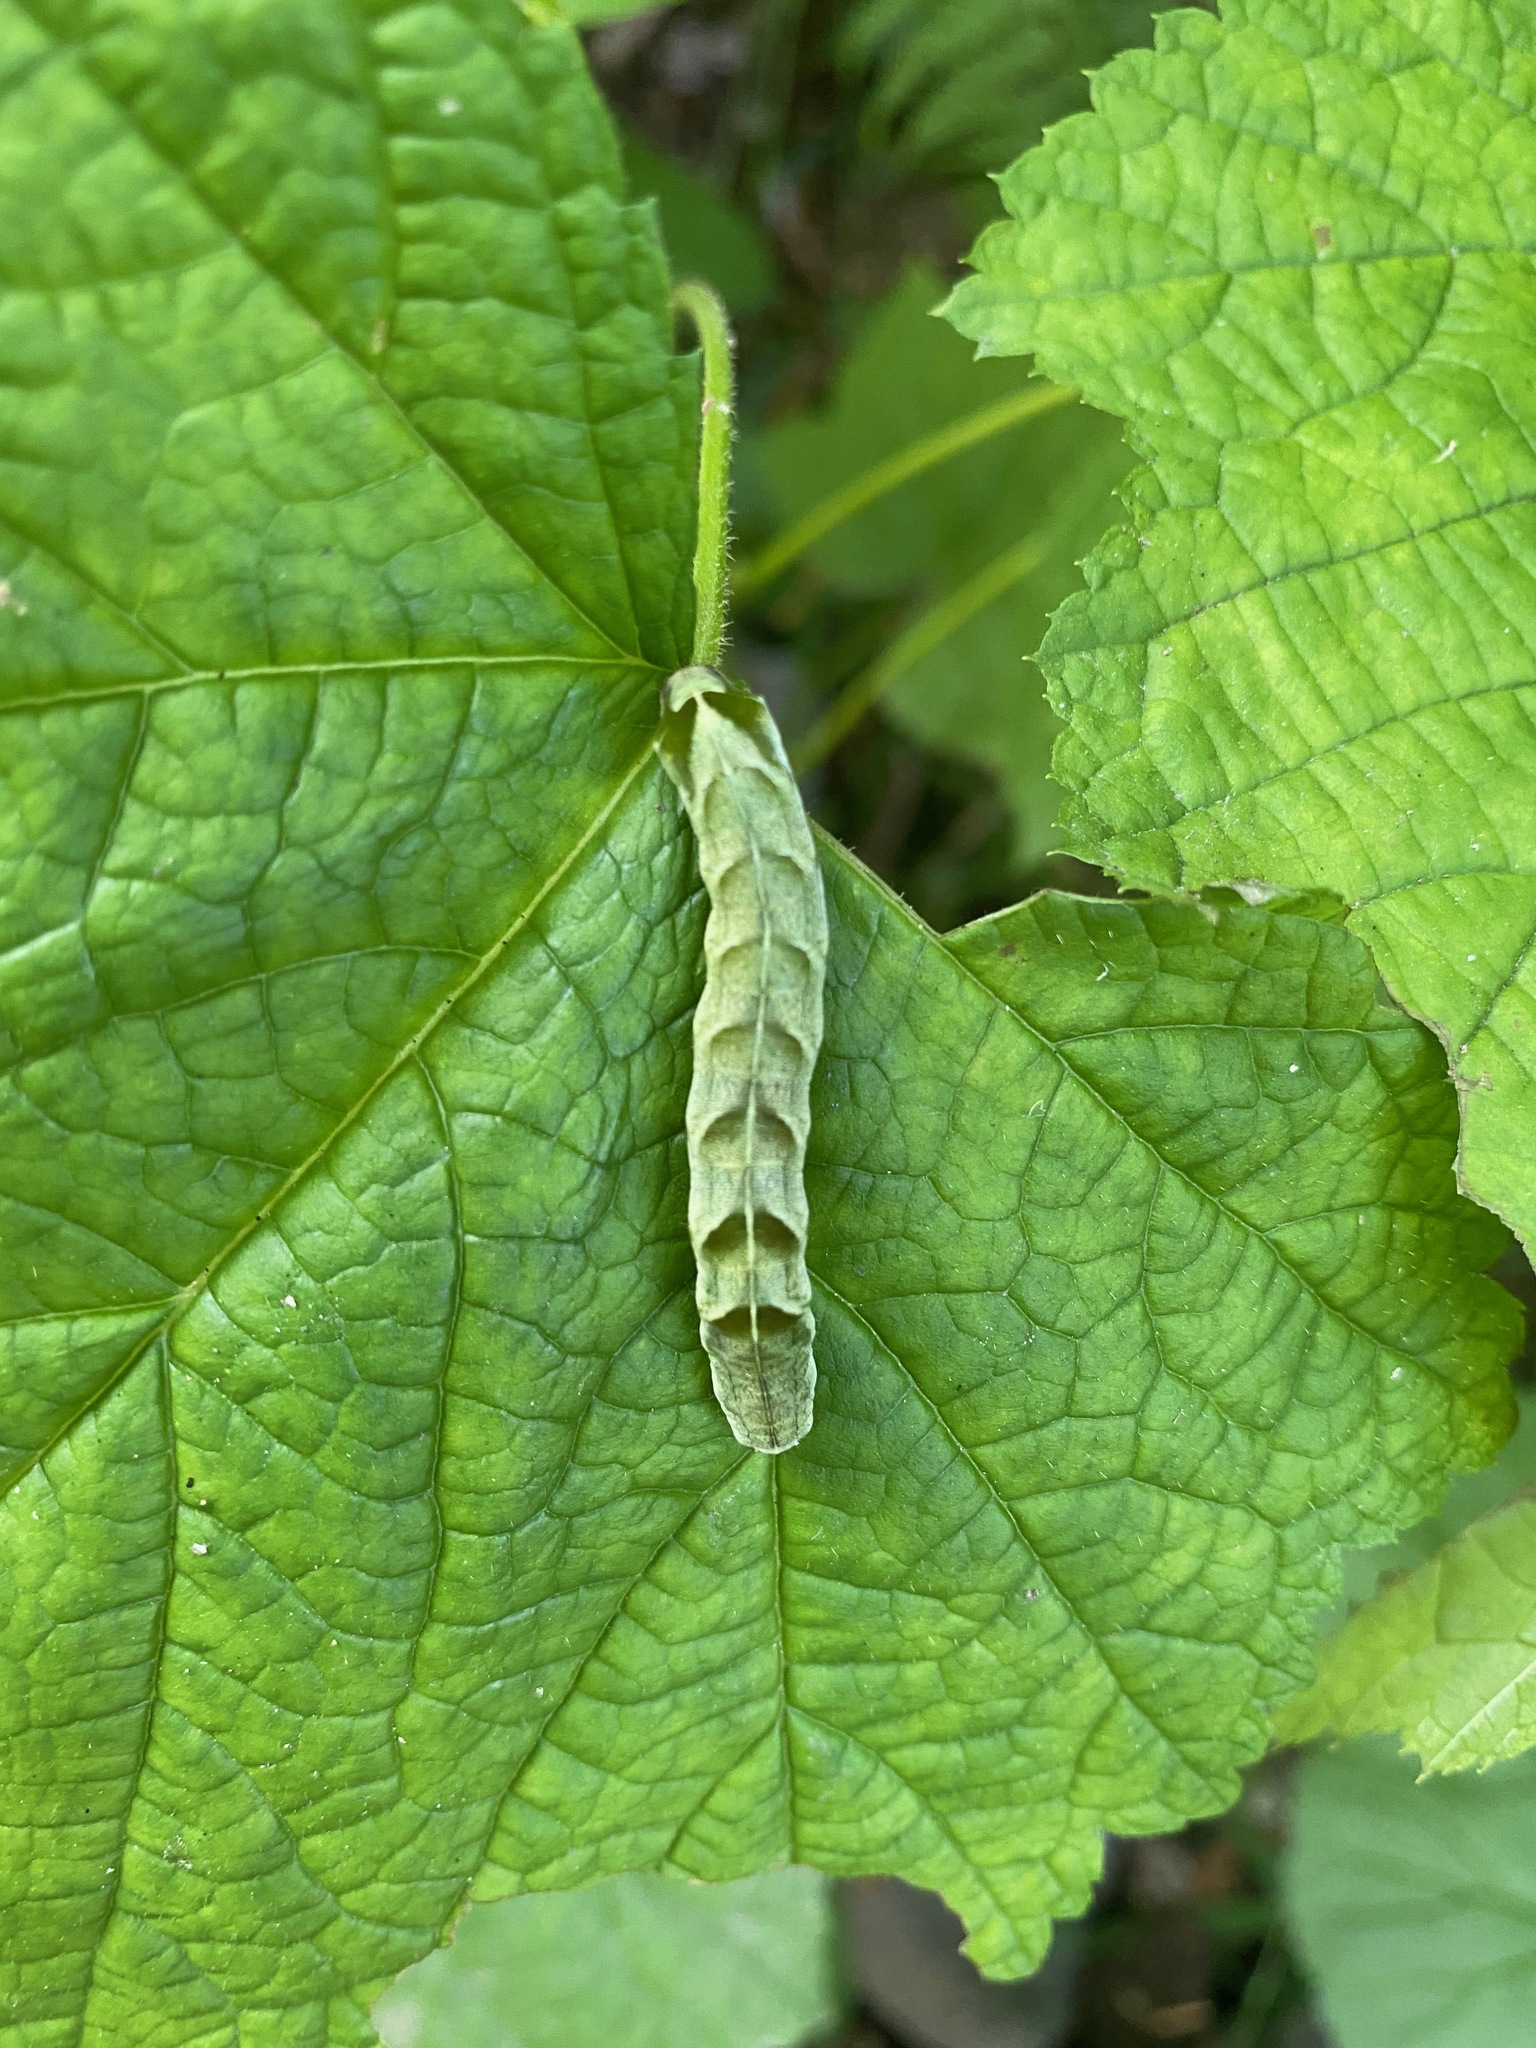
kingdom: Animalia
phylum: Arthropoda
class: Insecta
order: Lepidoptera
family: Noctuidae
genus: Melanchra
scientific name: Melanchra adjuncta
